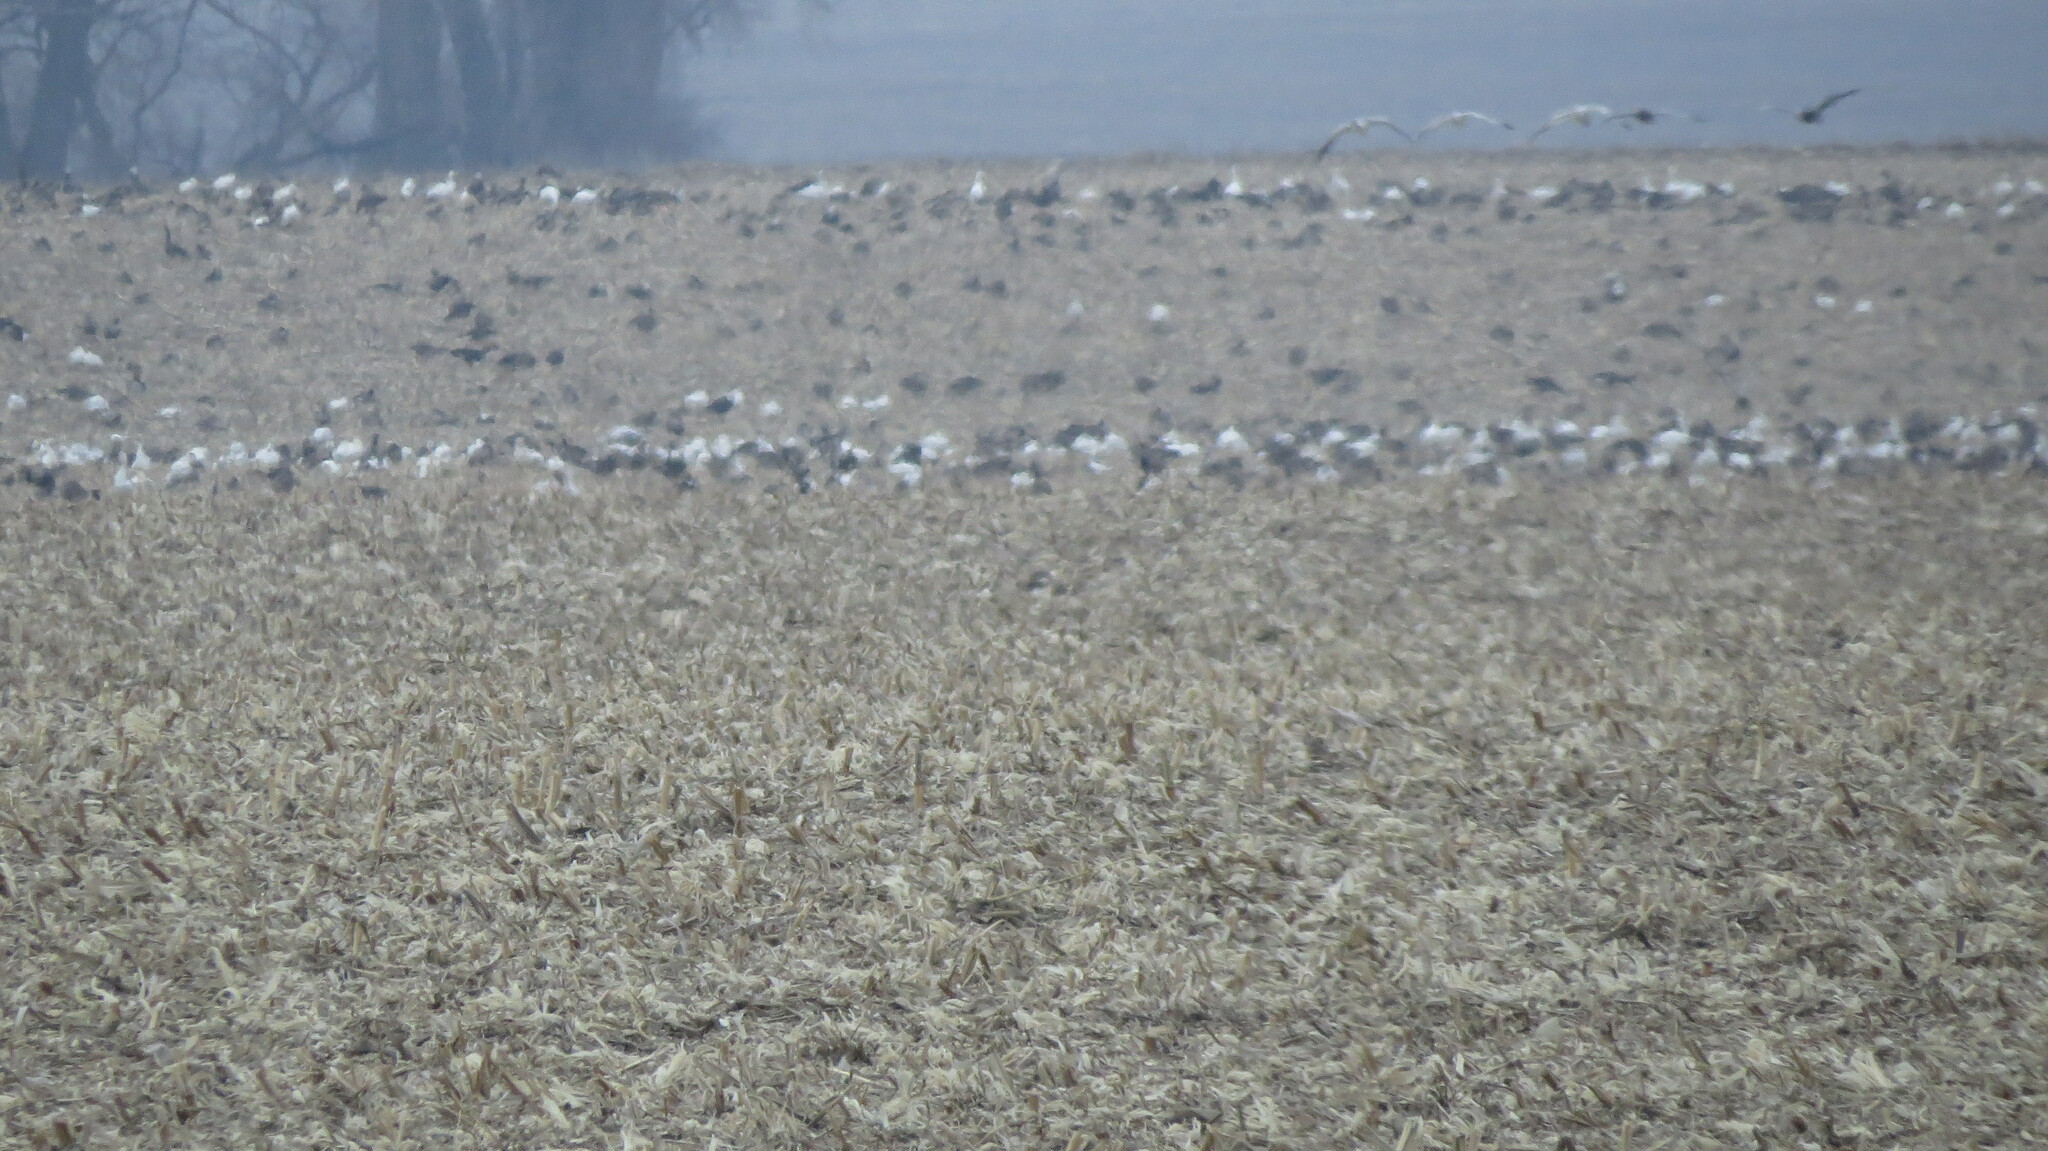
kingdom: Animalia
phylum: Chordata
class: Aves
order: Anseriformes
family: Anatidae
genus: Anser
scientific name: Anser albifrons
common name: Greater white-fronted goose
